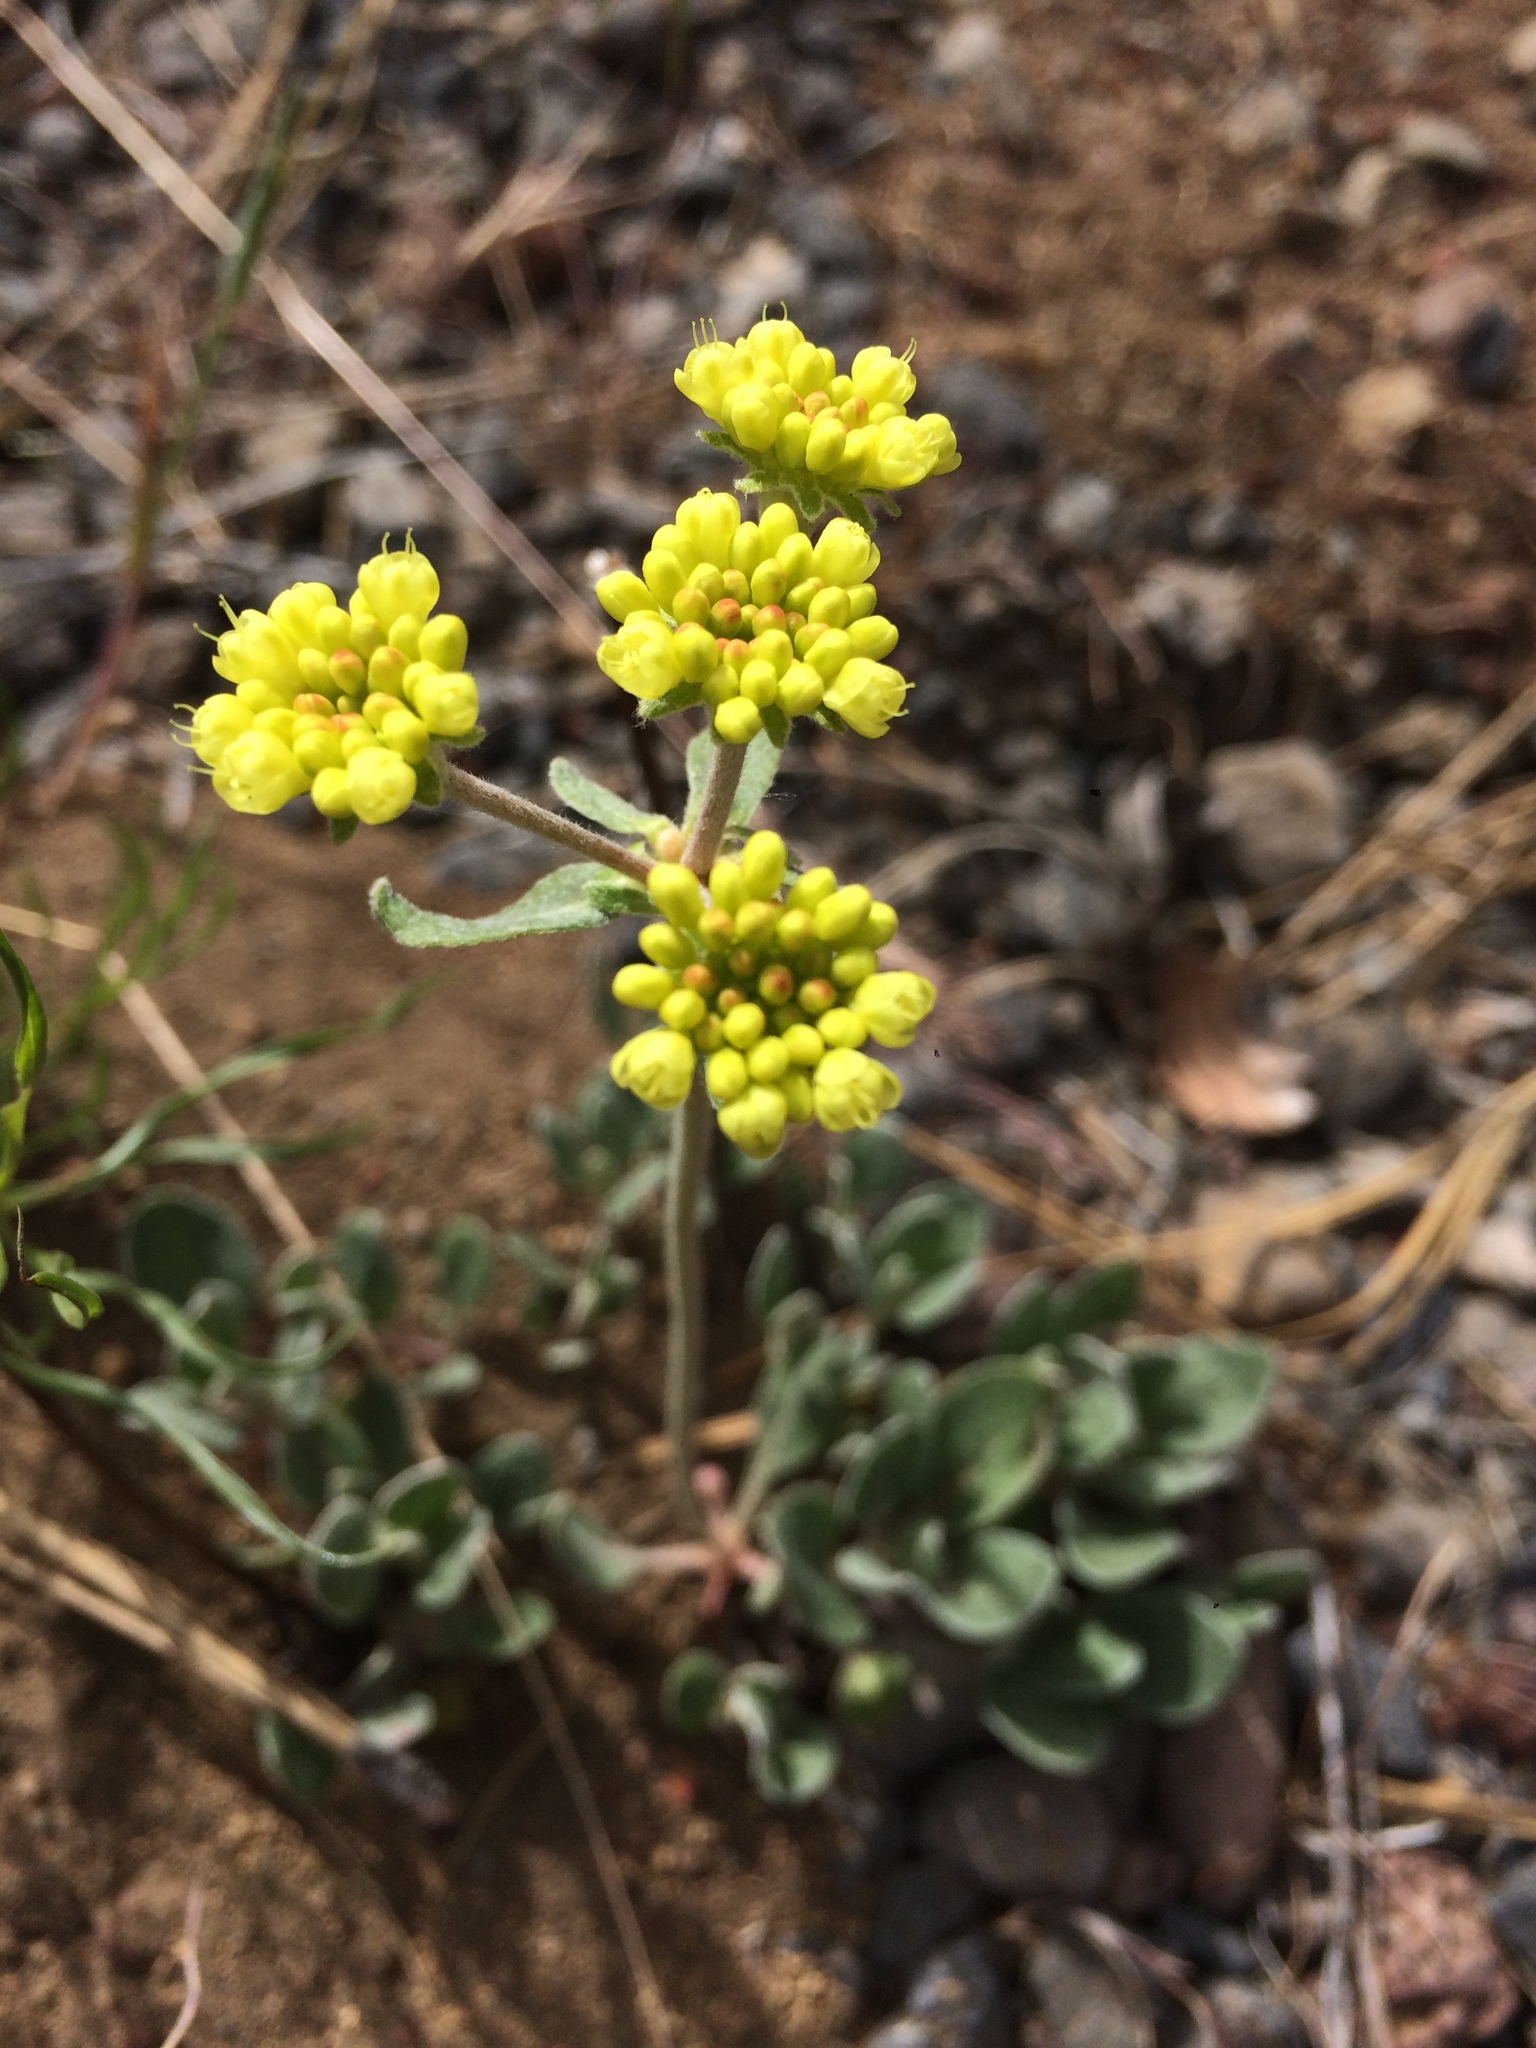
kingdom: Plantae
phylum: Tracheophyta
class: Magnoliopsida
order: Caryophyllales
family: Polygonaceae
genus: Eriogonum
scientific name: Eriogonum strictum
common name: Blue mountain buckwheat
